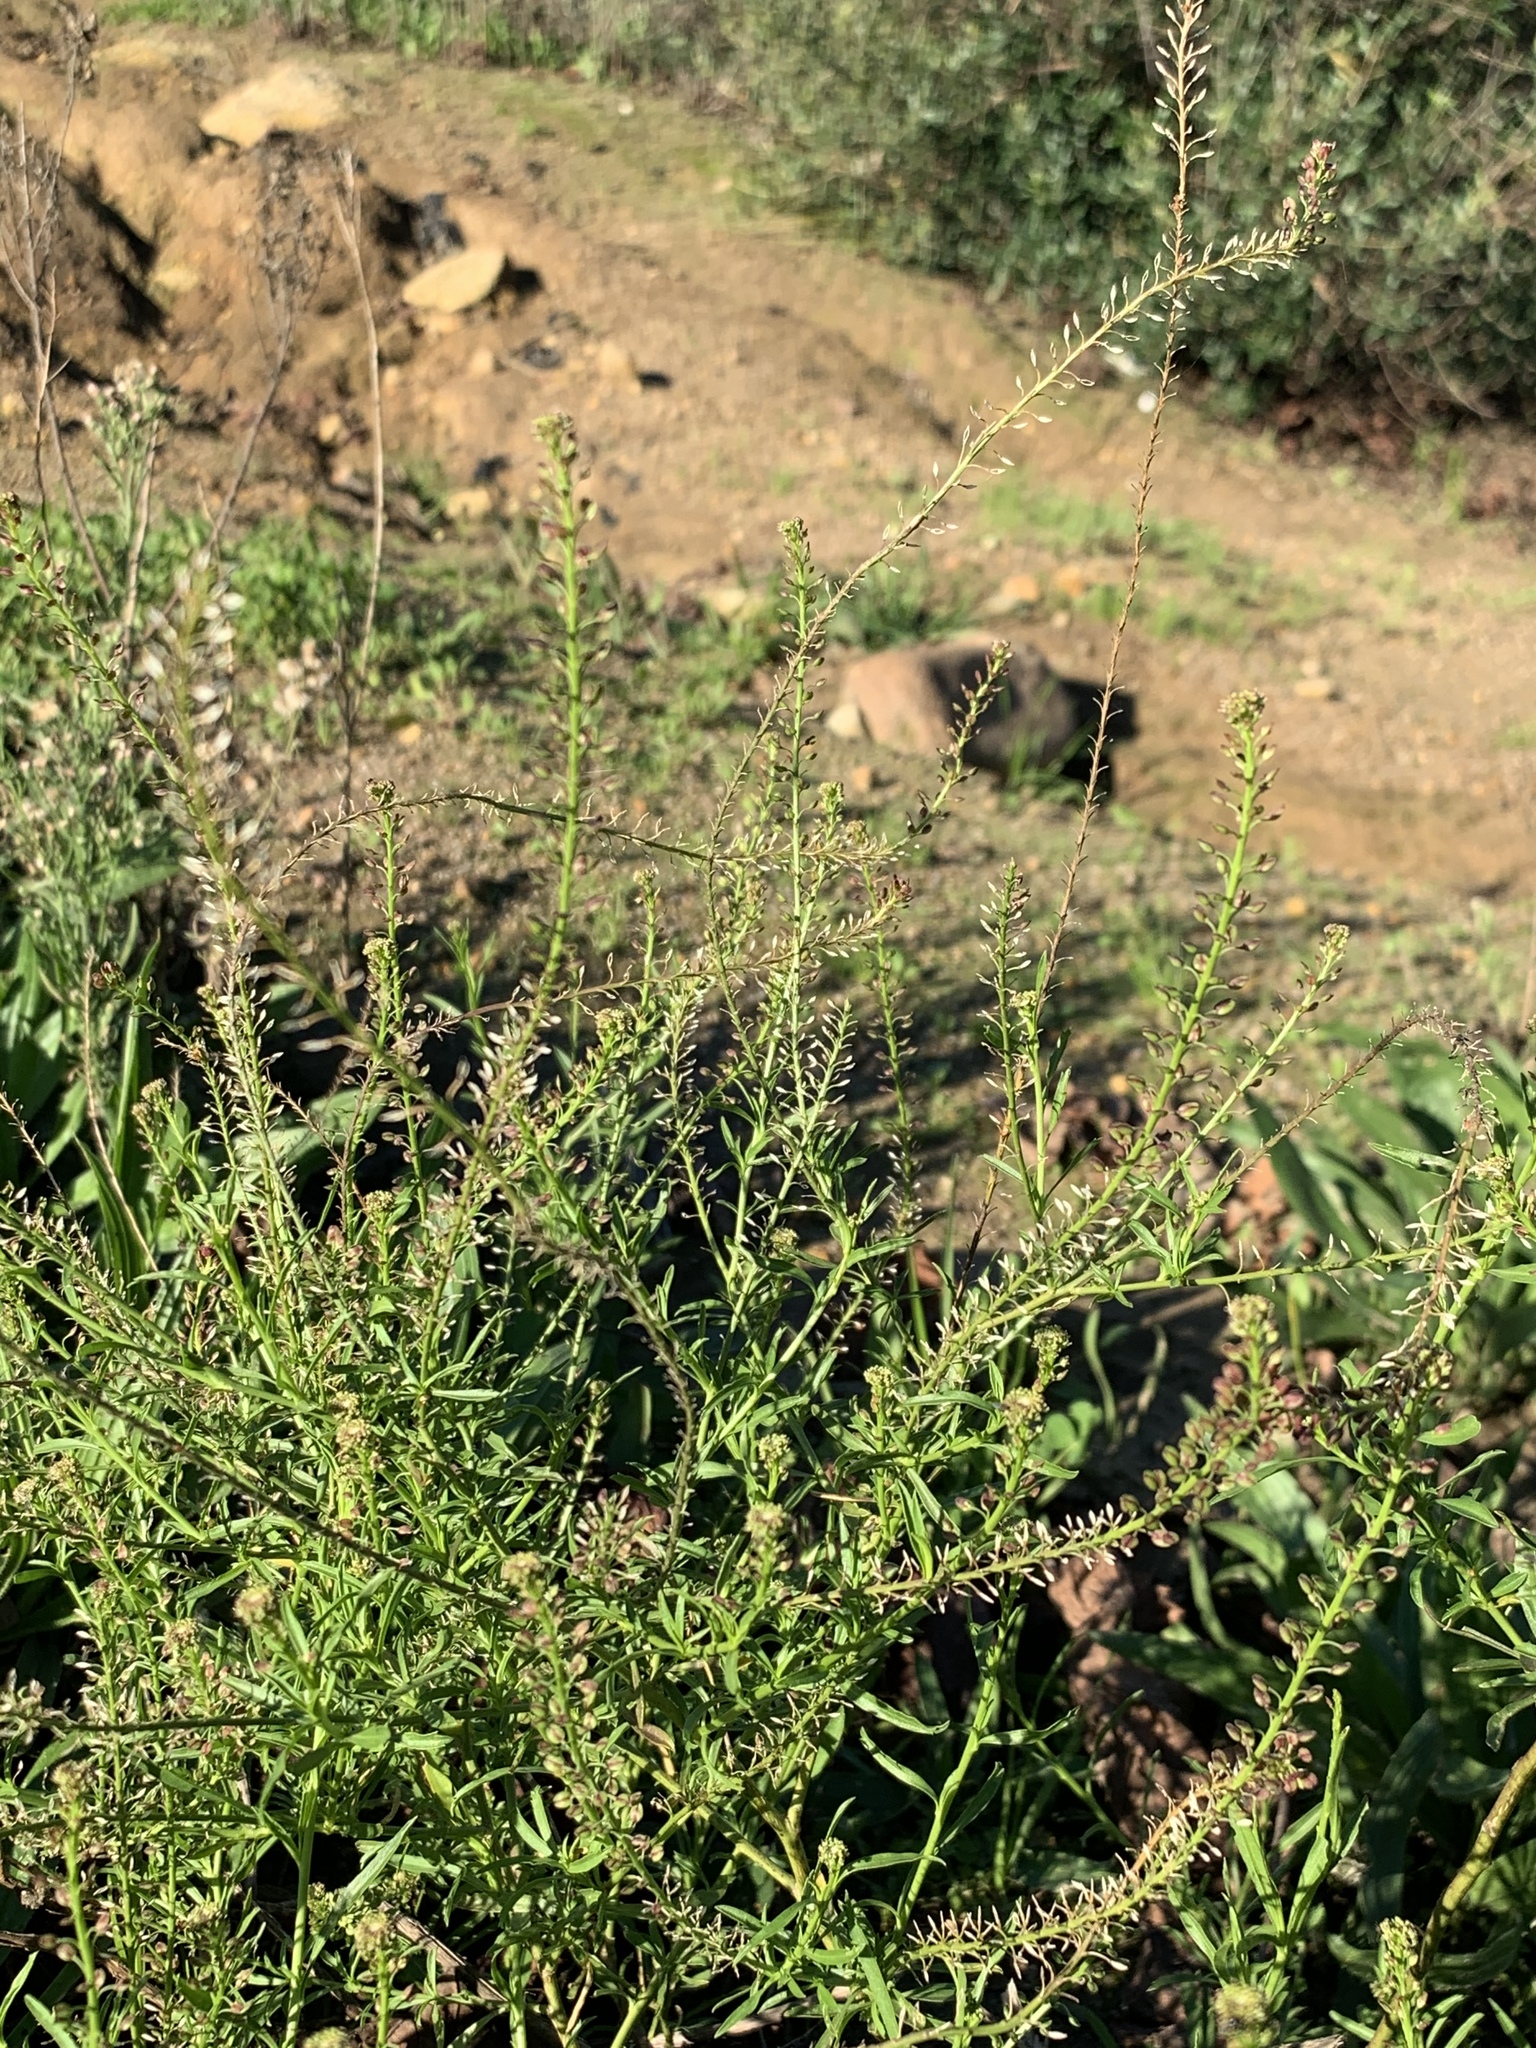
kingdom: Plantae
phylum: Tracheophyta
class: Magnoliopsida
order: Brassicales
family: Brassicaceae
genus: Lepidium
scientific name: Lepidium africanum
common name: African pepperwort
